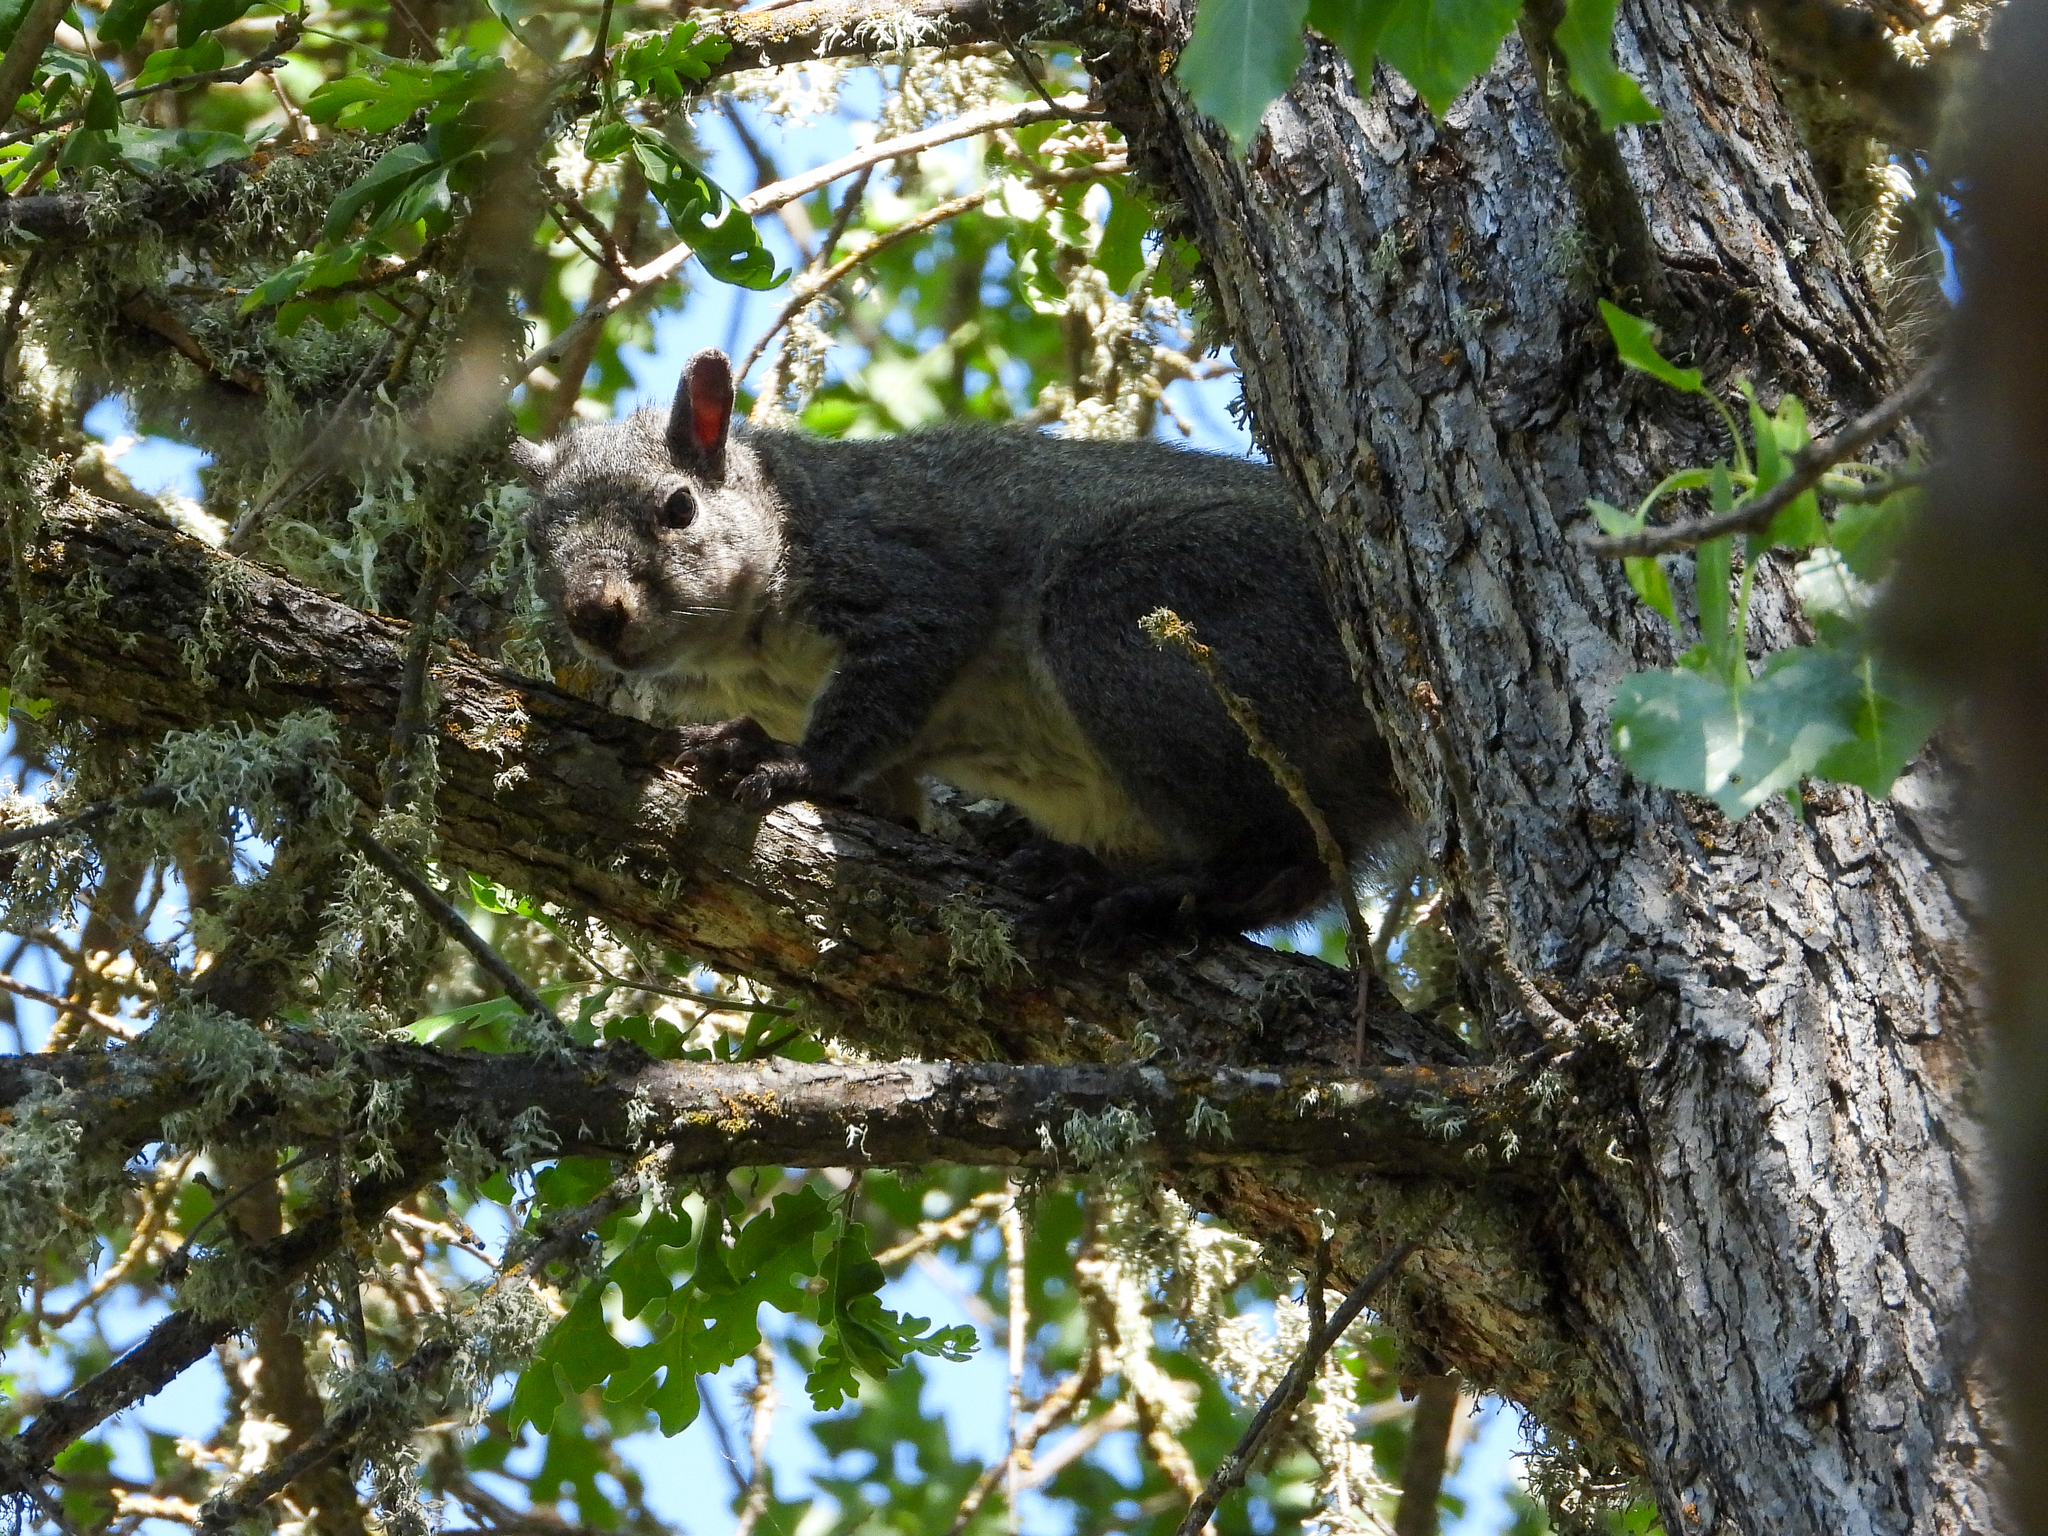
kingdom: Animalia
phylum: Chordata
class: Mammalia
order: Rodentia
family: Sciuridae
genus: Sciurus
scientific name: Sciurus griseus
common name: Western gray squirrel
